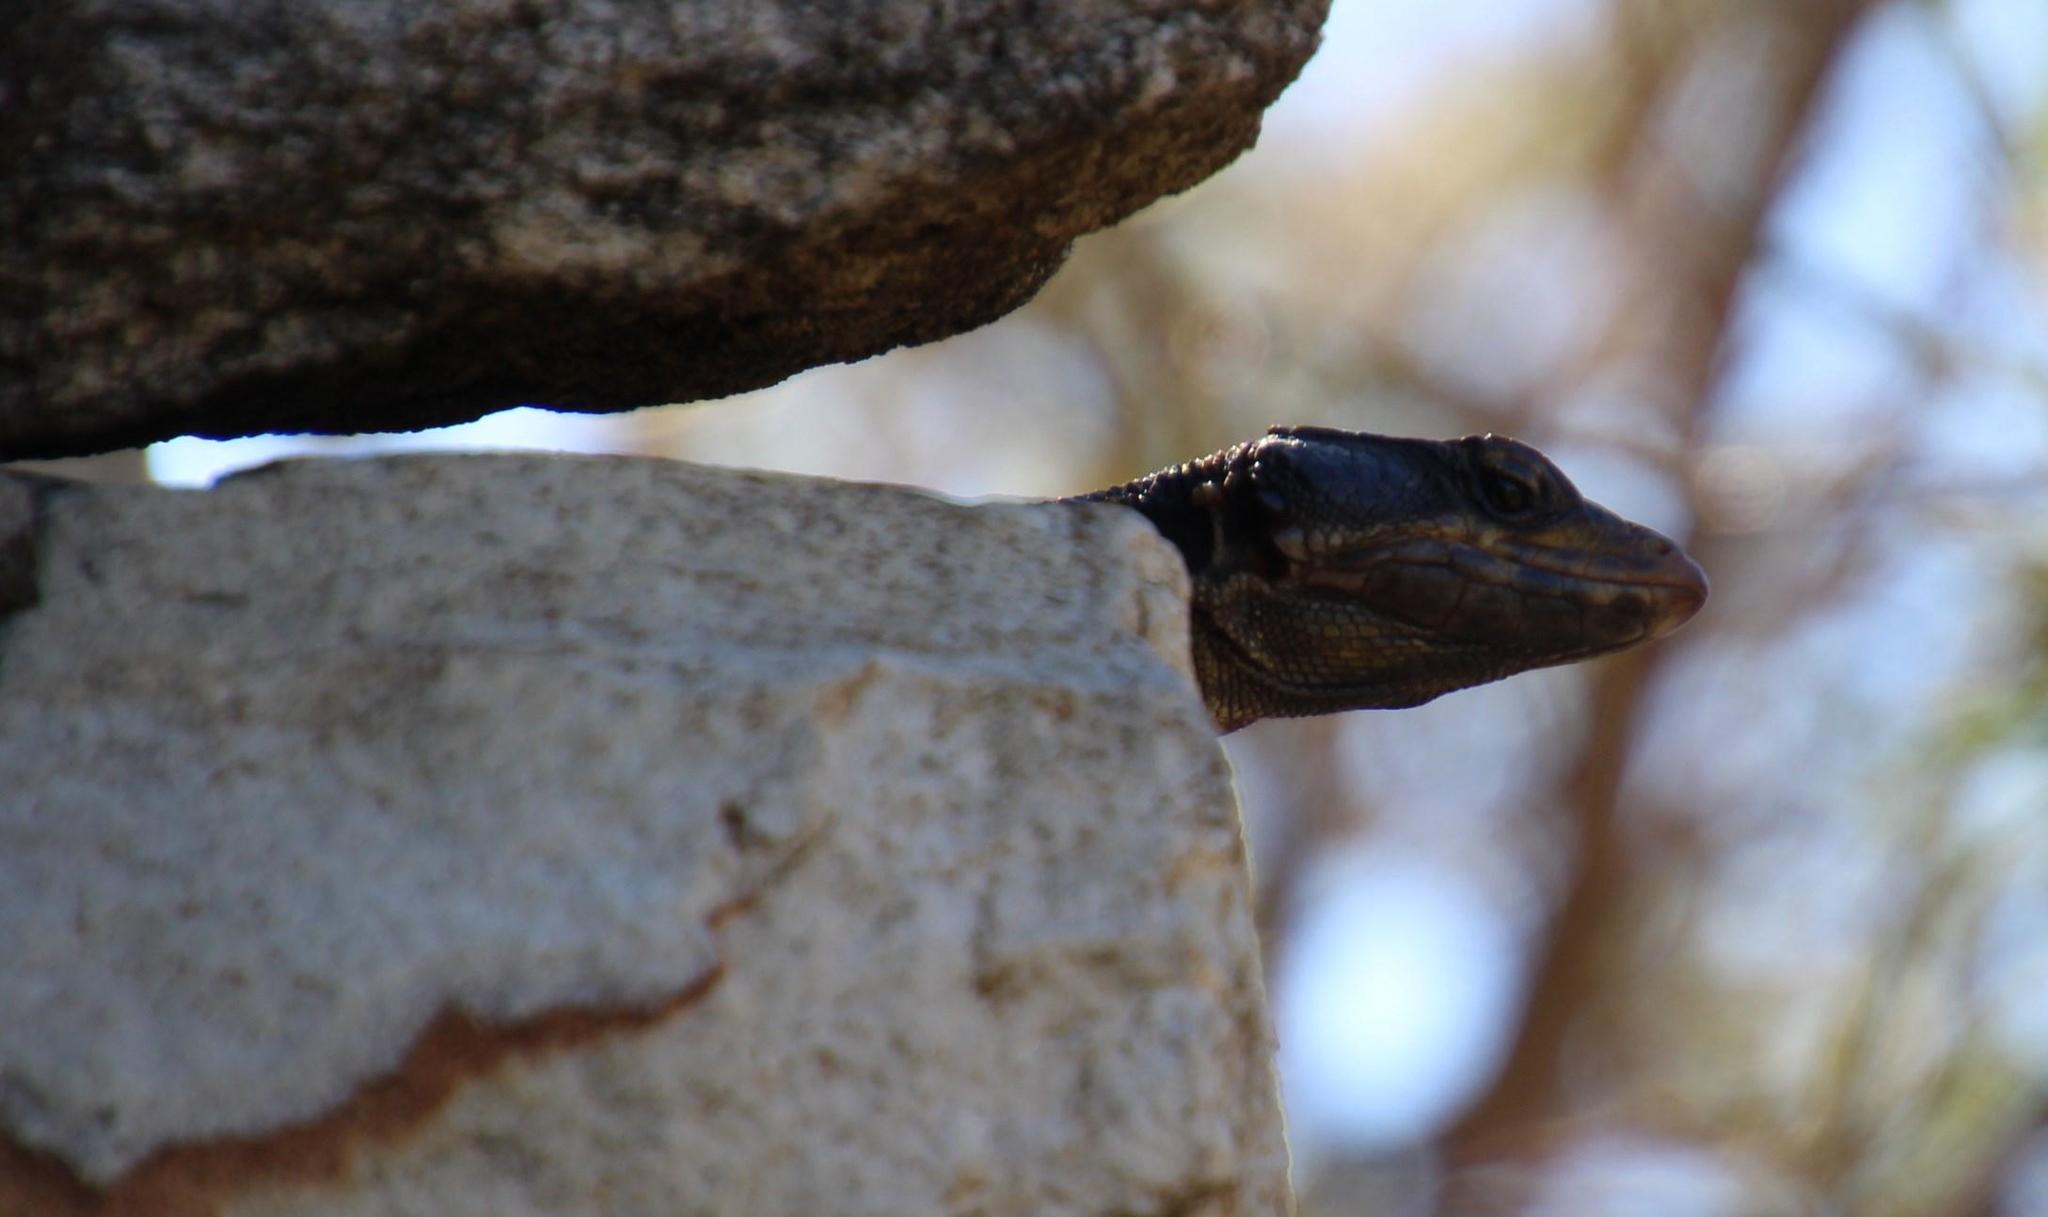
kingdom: Animalia
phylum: Chordata
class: Squamata
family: Cordylidae
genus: Pseudocordylus
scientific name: Pseudocordylus microlepidotus
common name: Cape crag lizard
